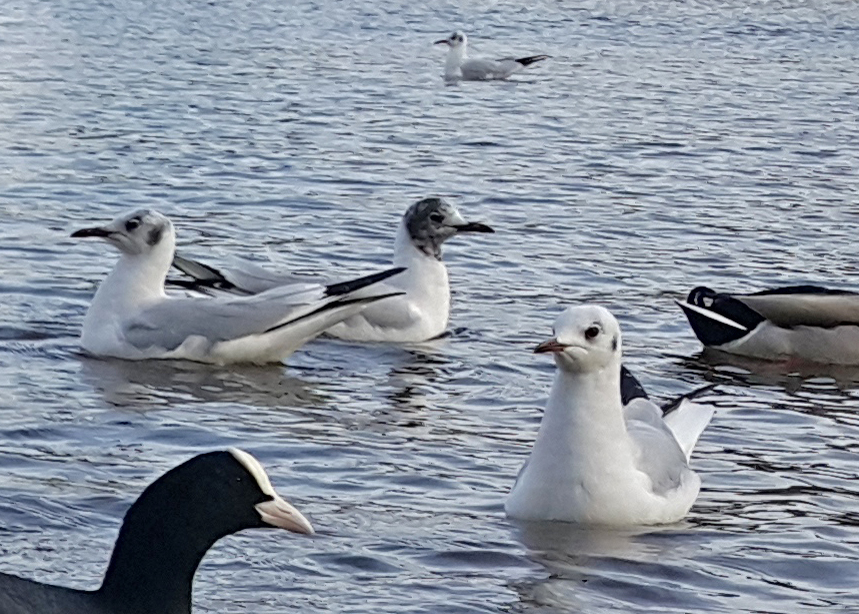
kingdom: Animalia
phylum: Chordata
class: Aves
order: Charadriiformes
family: Laridae
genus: Chroicocephalus
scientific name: Chroicocephalus ridibundus
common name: Black-headed gull
